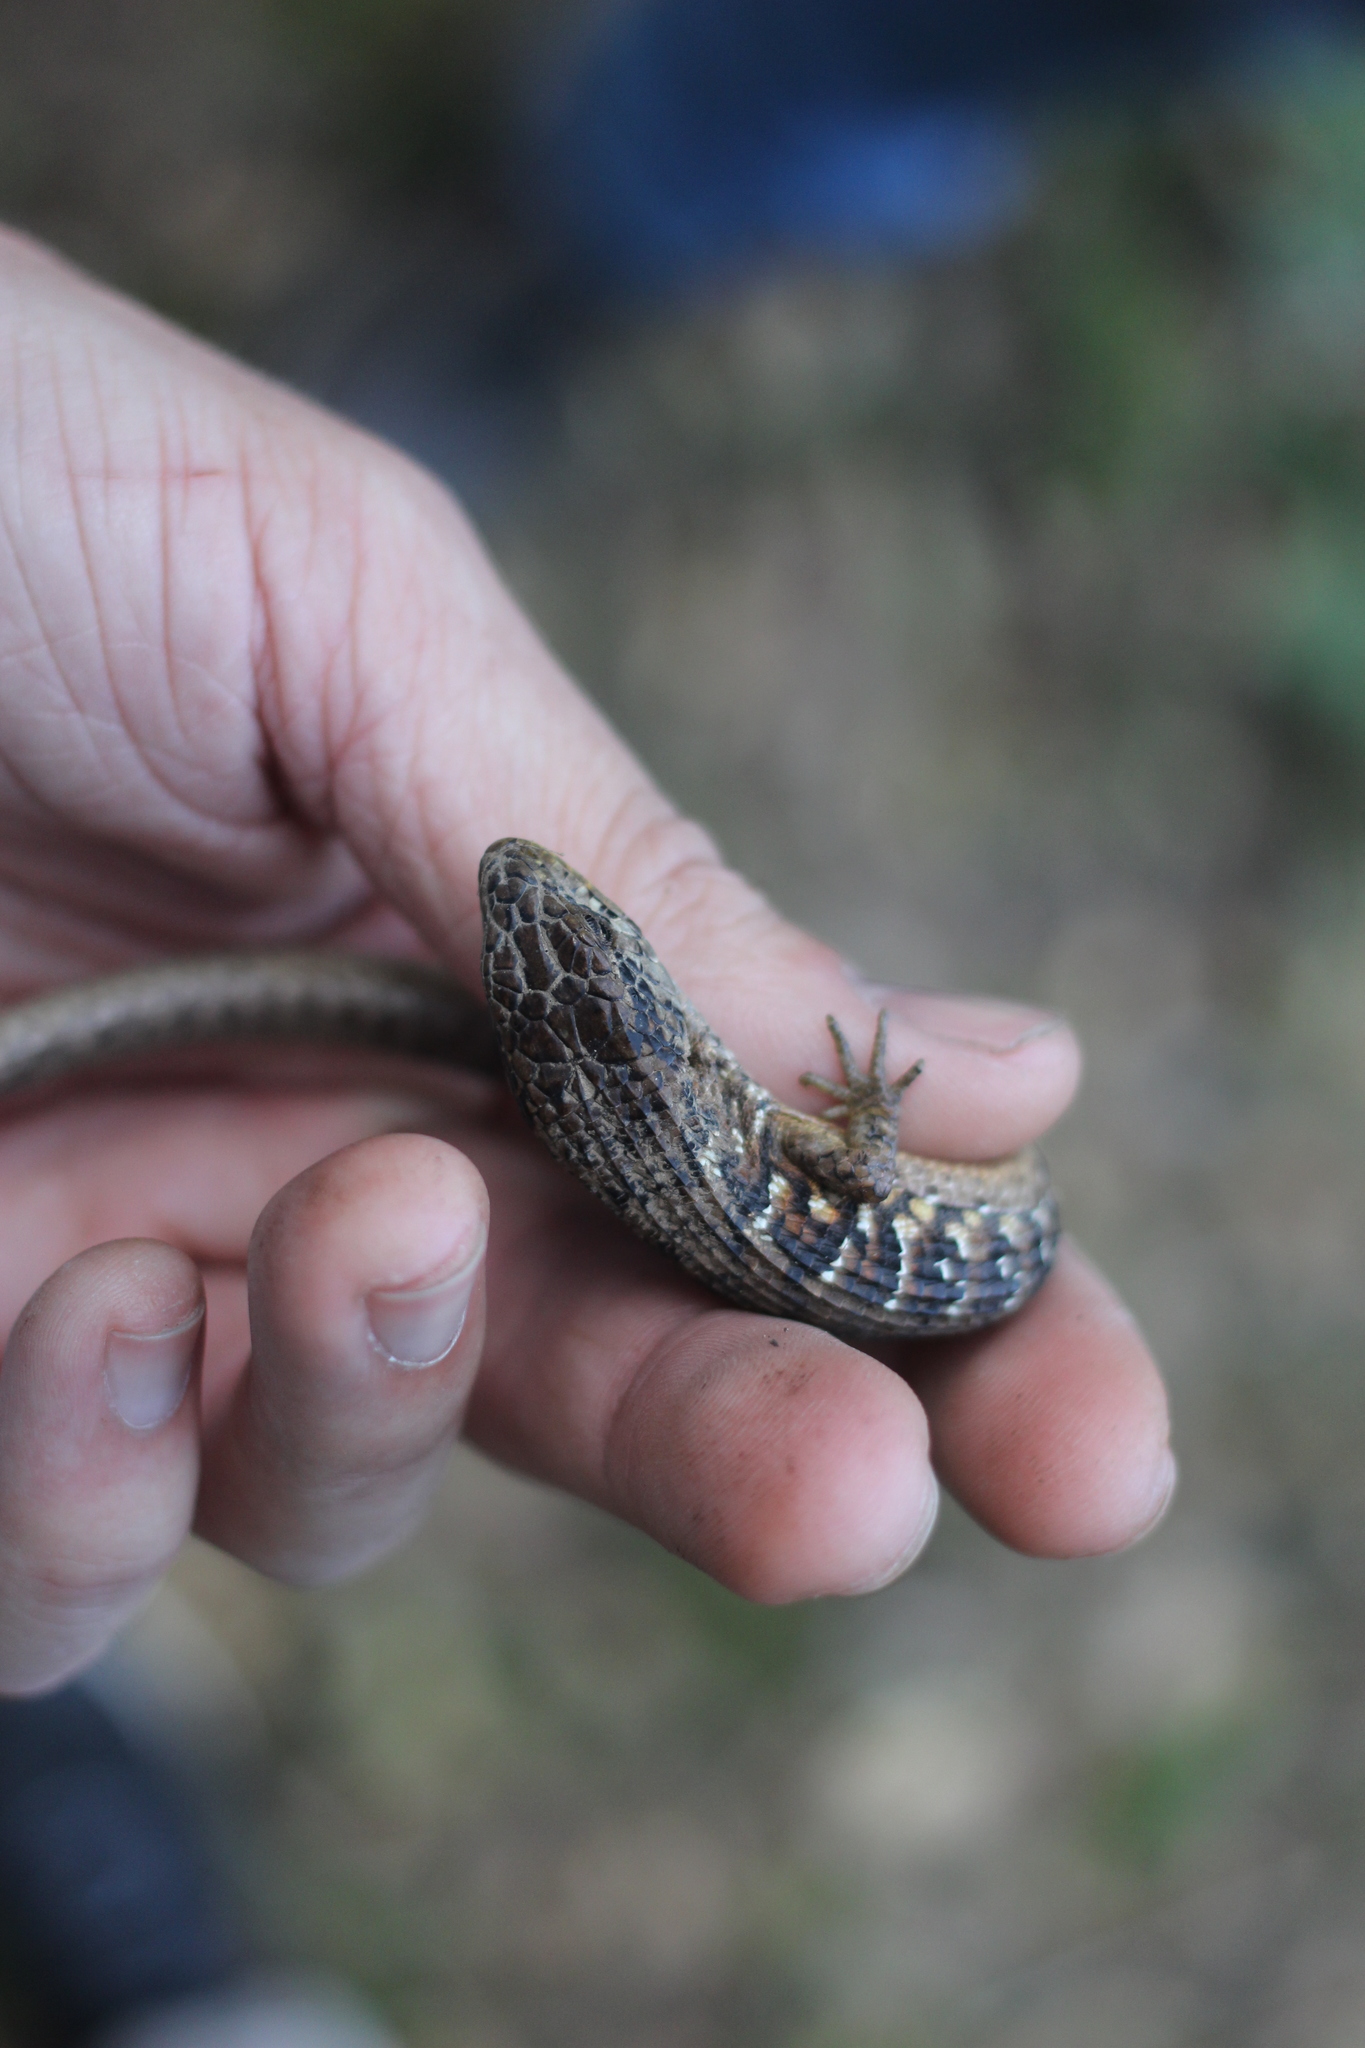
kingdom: Animalia
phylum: Chordata
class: Squamata
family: Anguidae
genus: Elgaria
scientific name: Elgaria coerulea
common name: Northern alligator lizard
